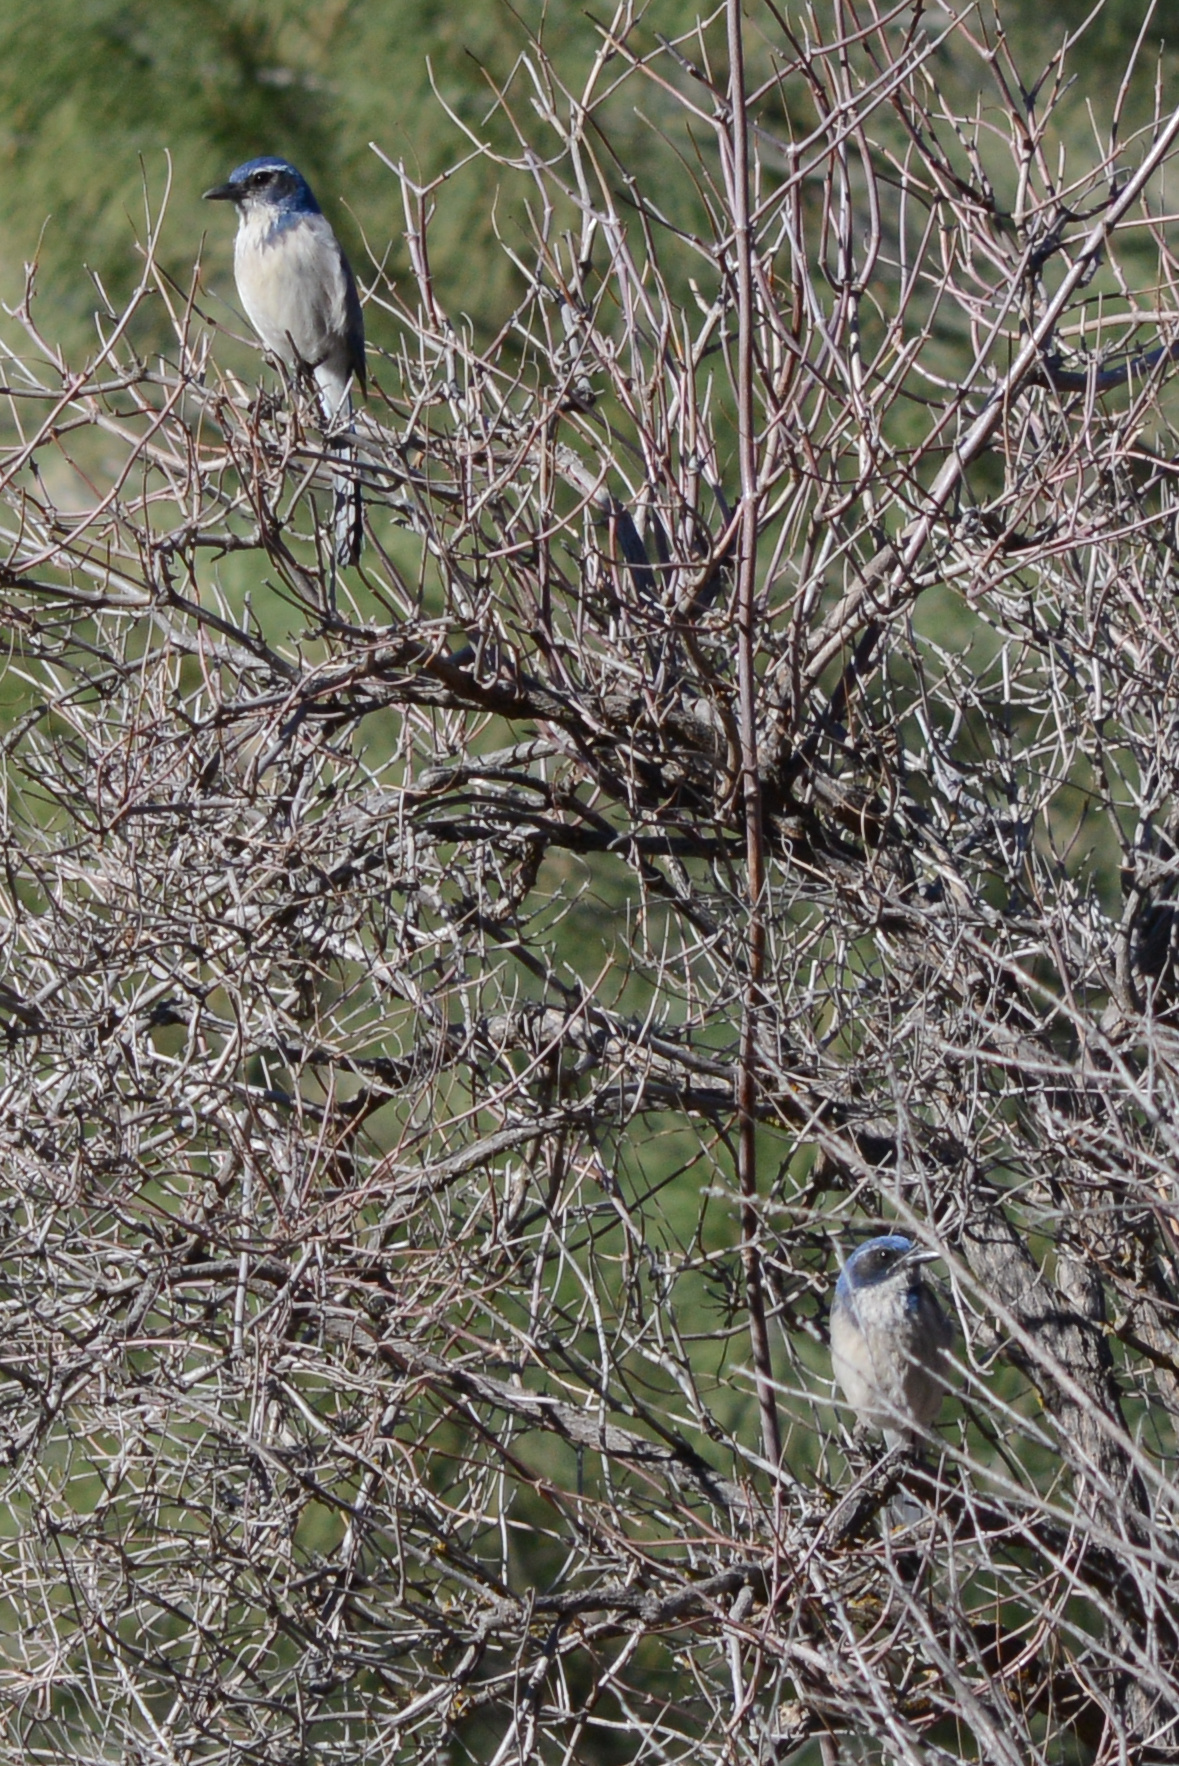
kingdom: Animalia
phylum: Chordata
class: Aves
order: Passeriformes
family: Corvidae
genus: Aphelocoma
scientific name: Aphelocoma californica
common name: California scrub-jay
